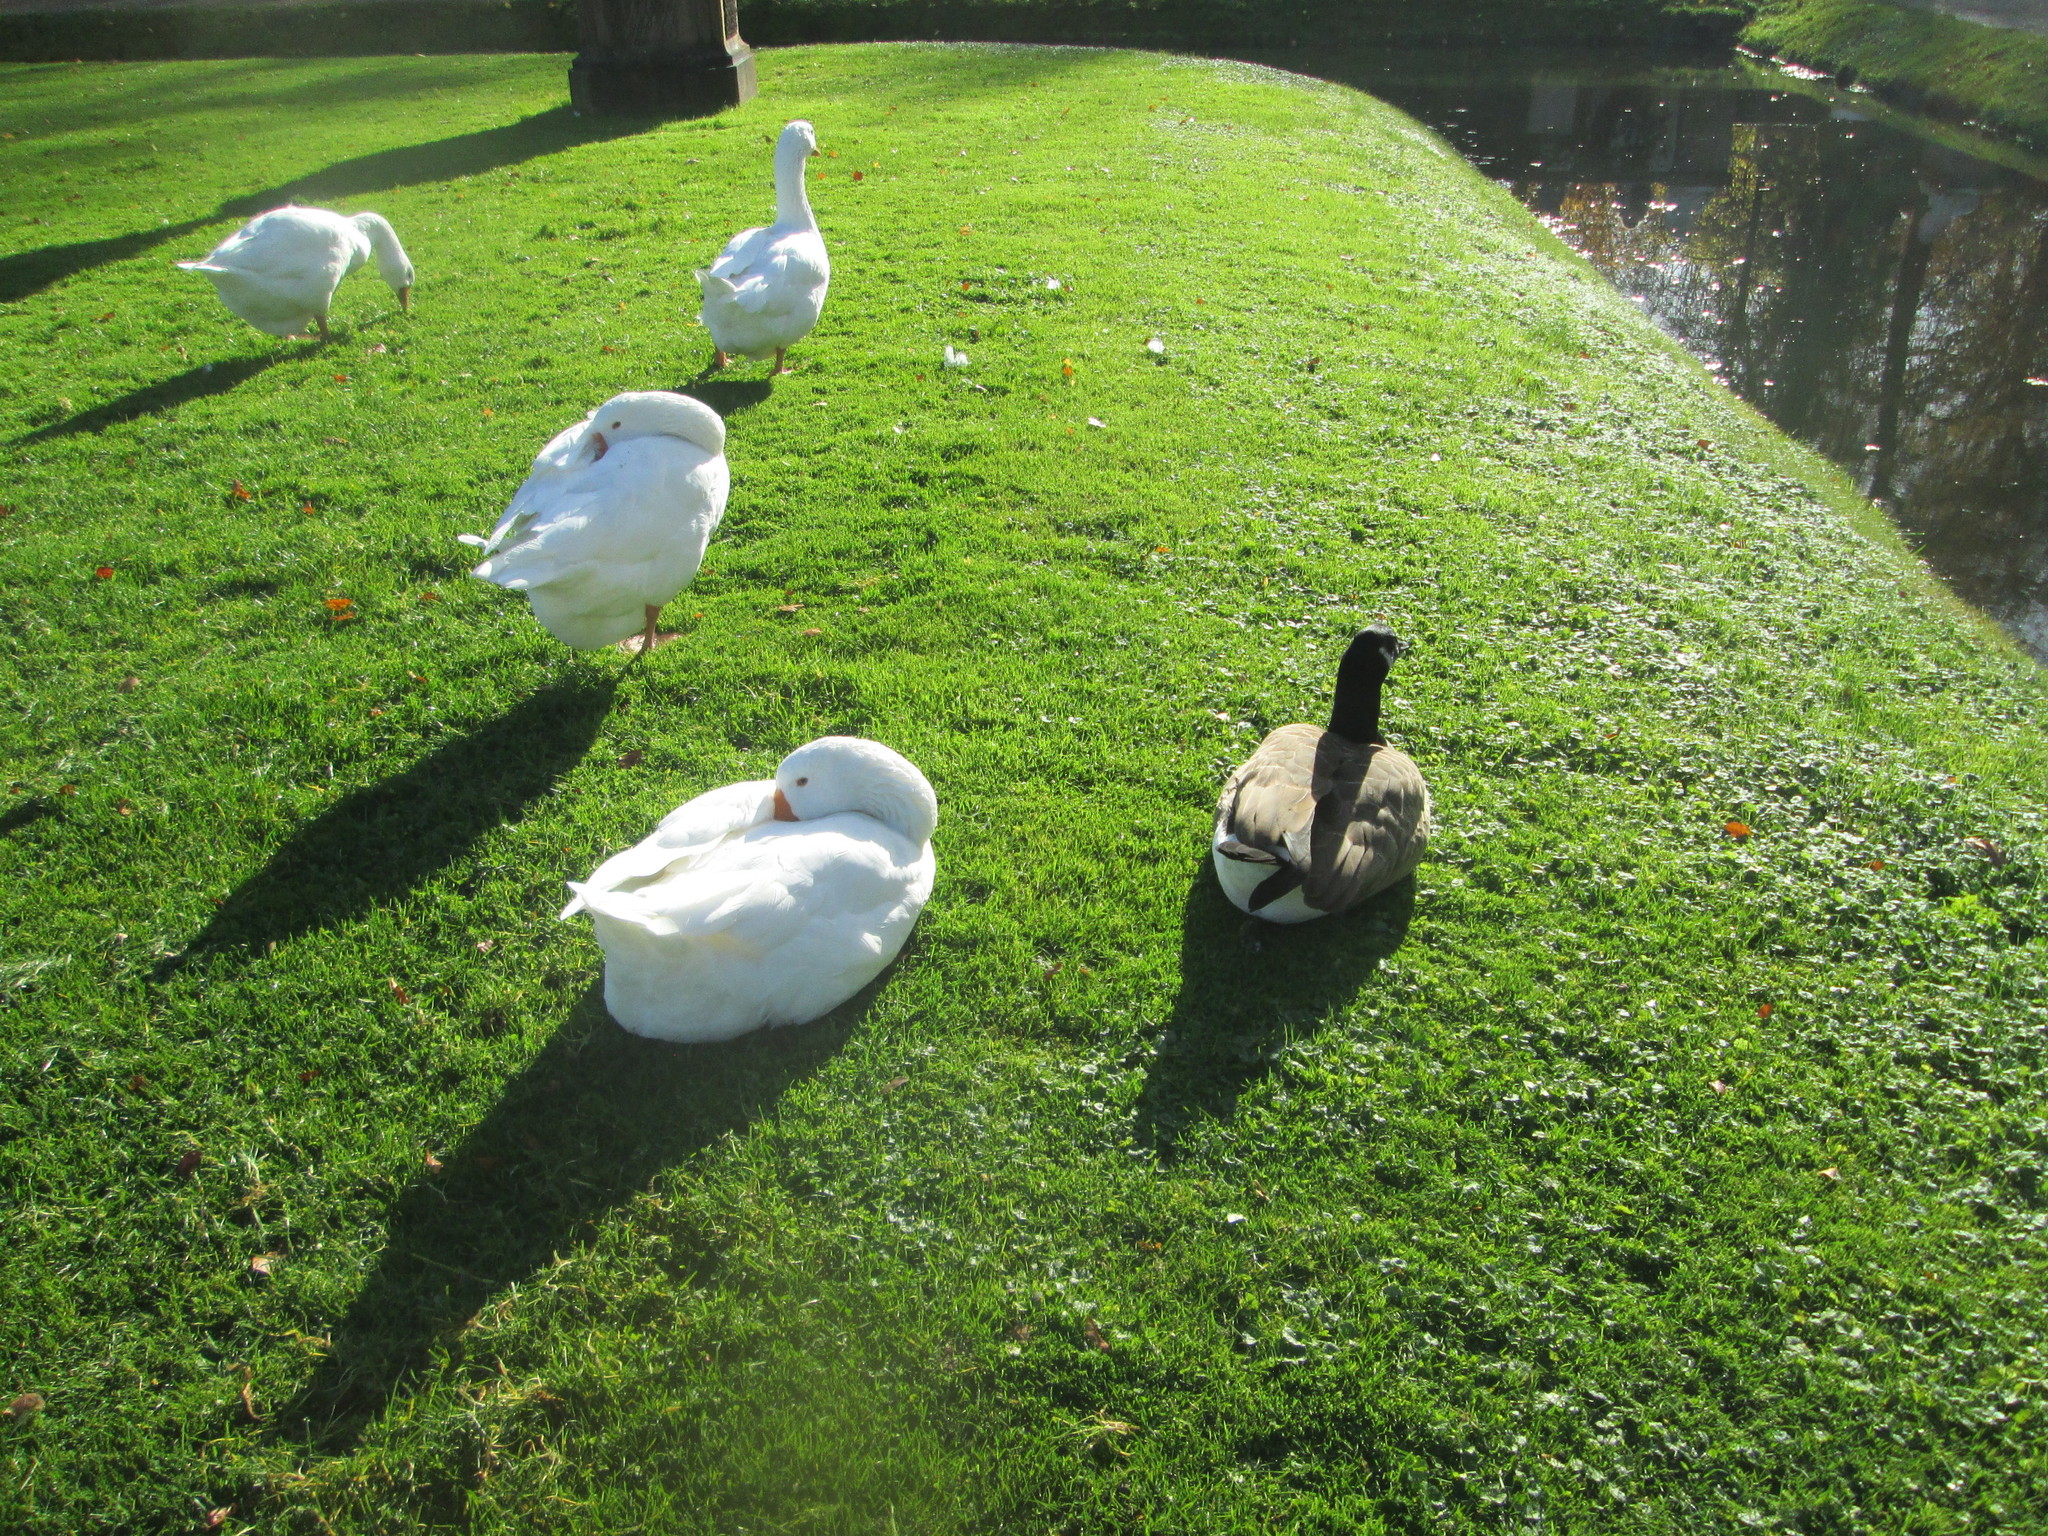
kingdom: Animalia
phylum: Chordata
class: Aves
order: Anseriformes
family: Anatidae
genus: Branta
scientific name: Branta canadensis
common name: Canada goose
